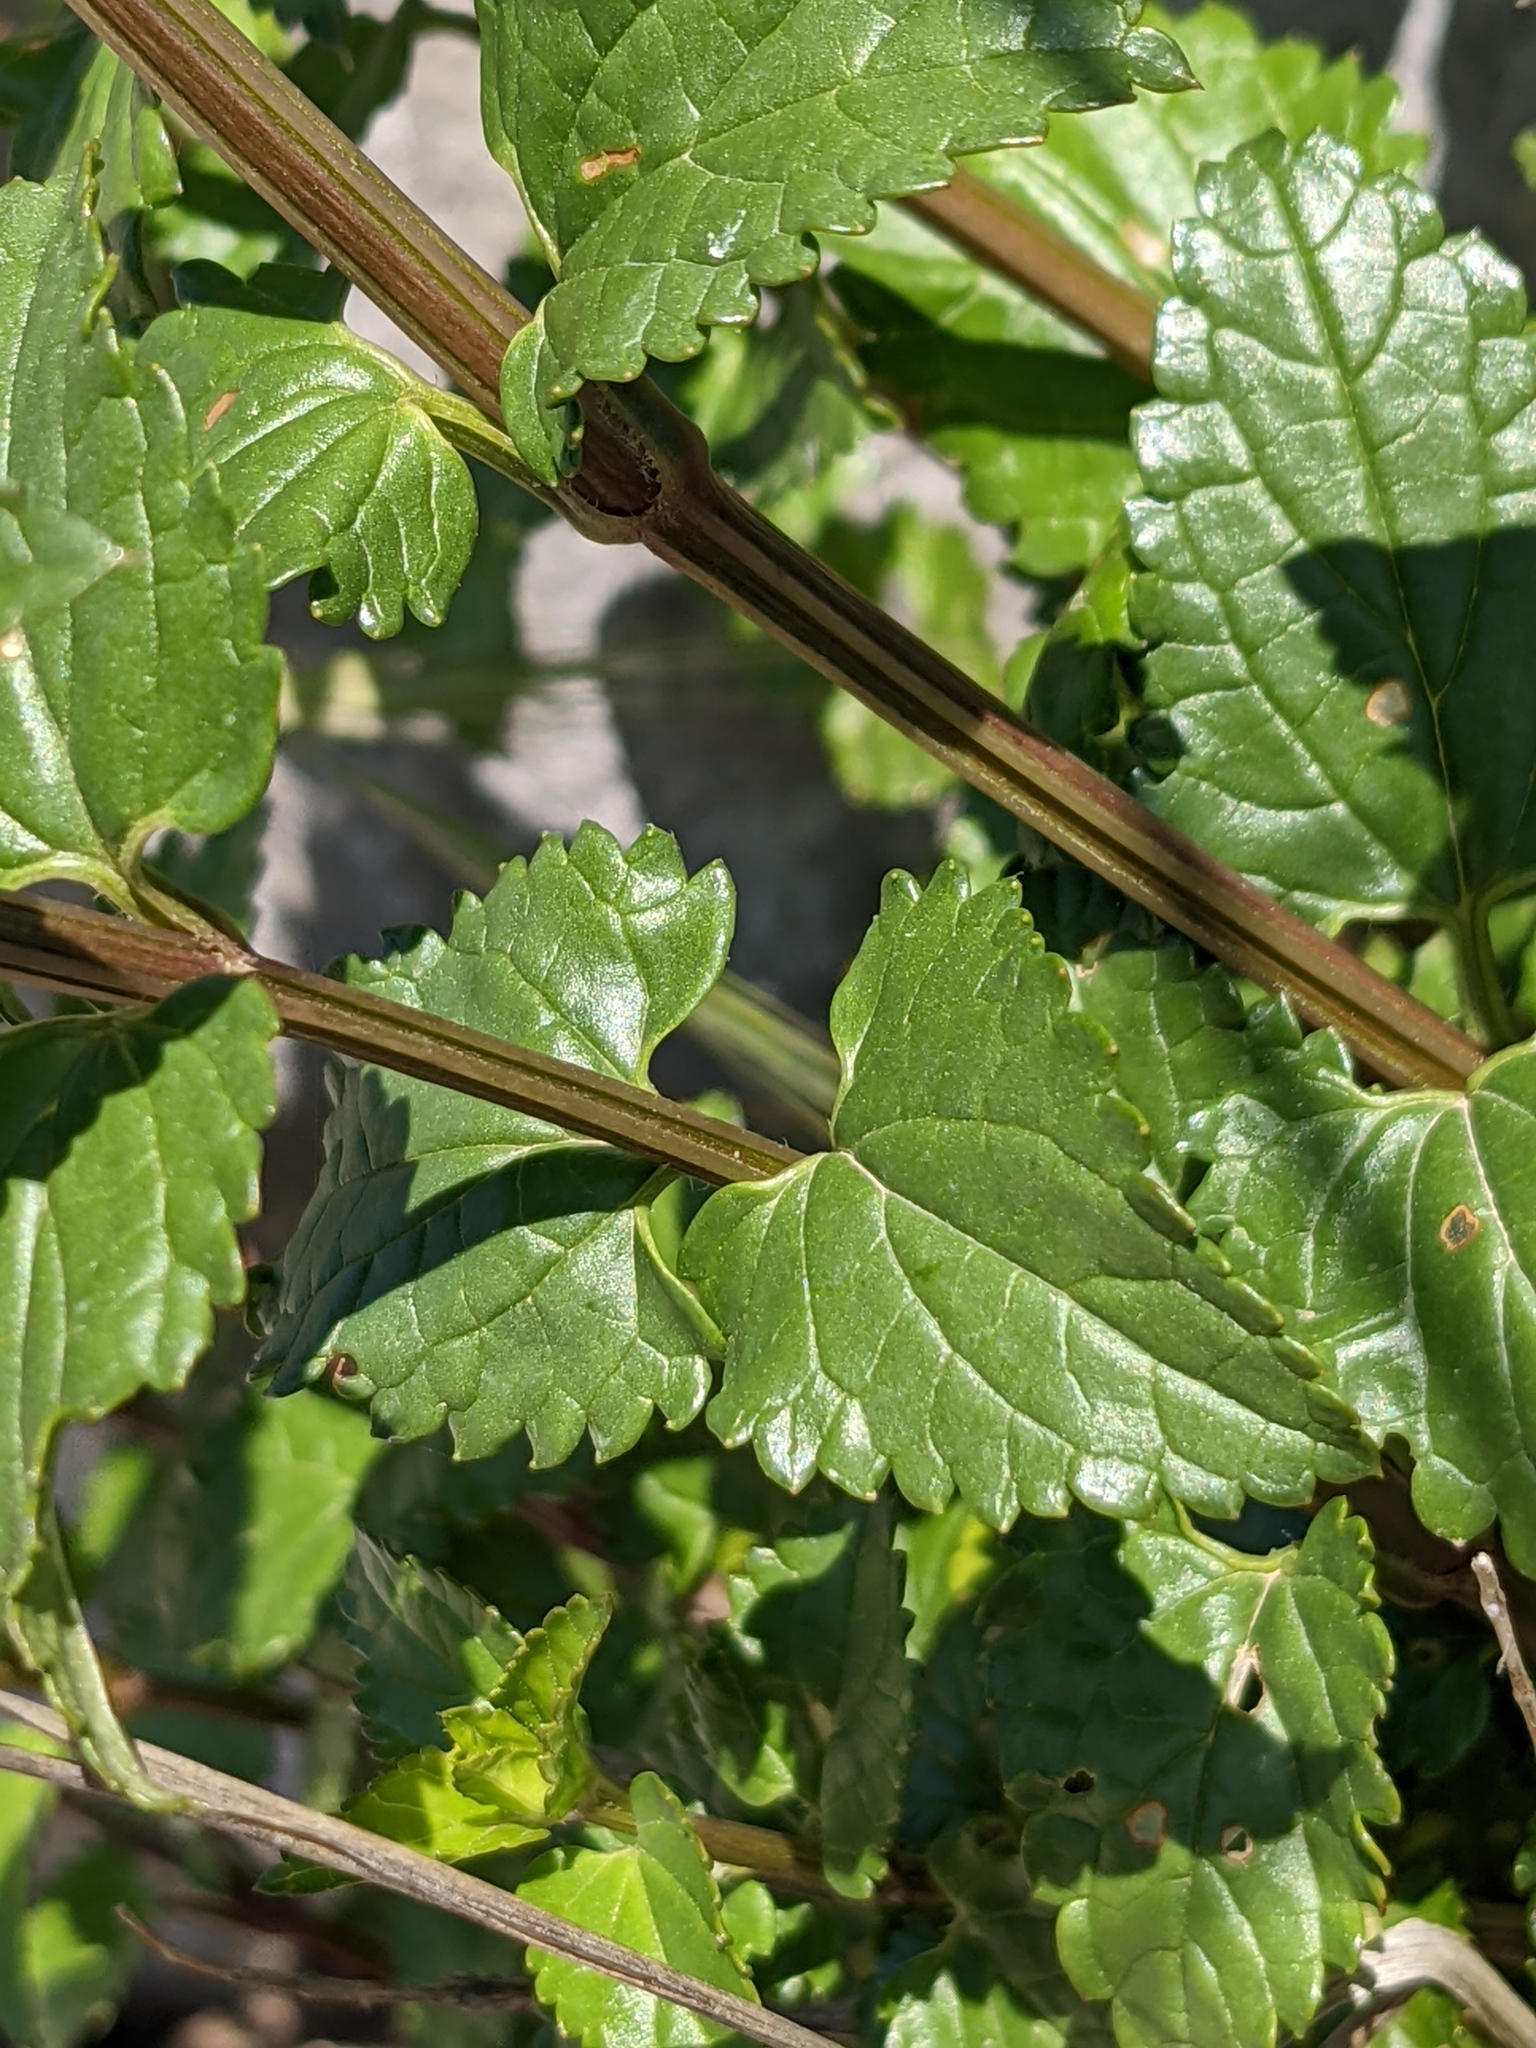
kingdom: Plantae
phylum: Tracheophyta
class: Magnoliopsida
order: Lamiales
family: Lamiaceae
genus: Prasium
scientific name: Prasium majus
